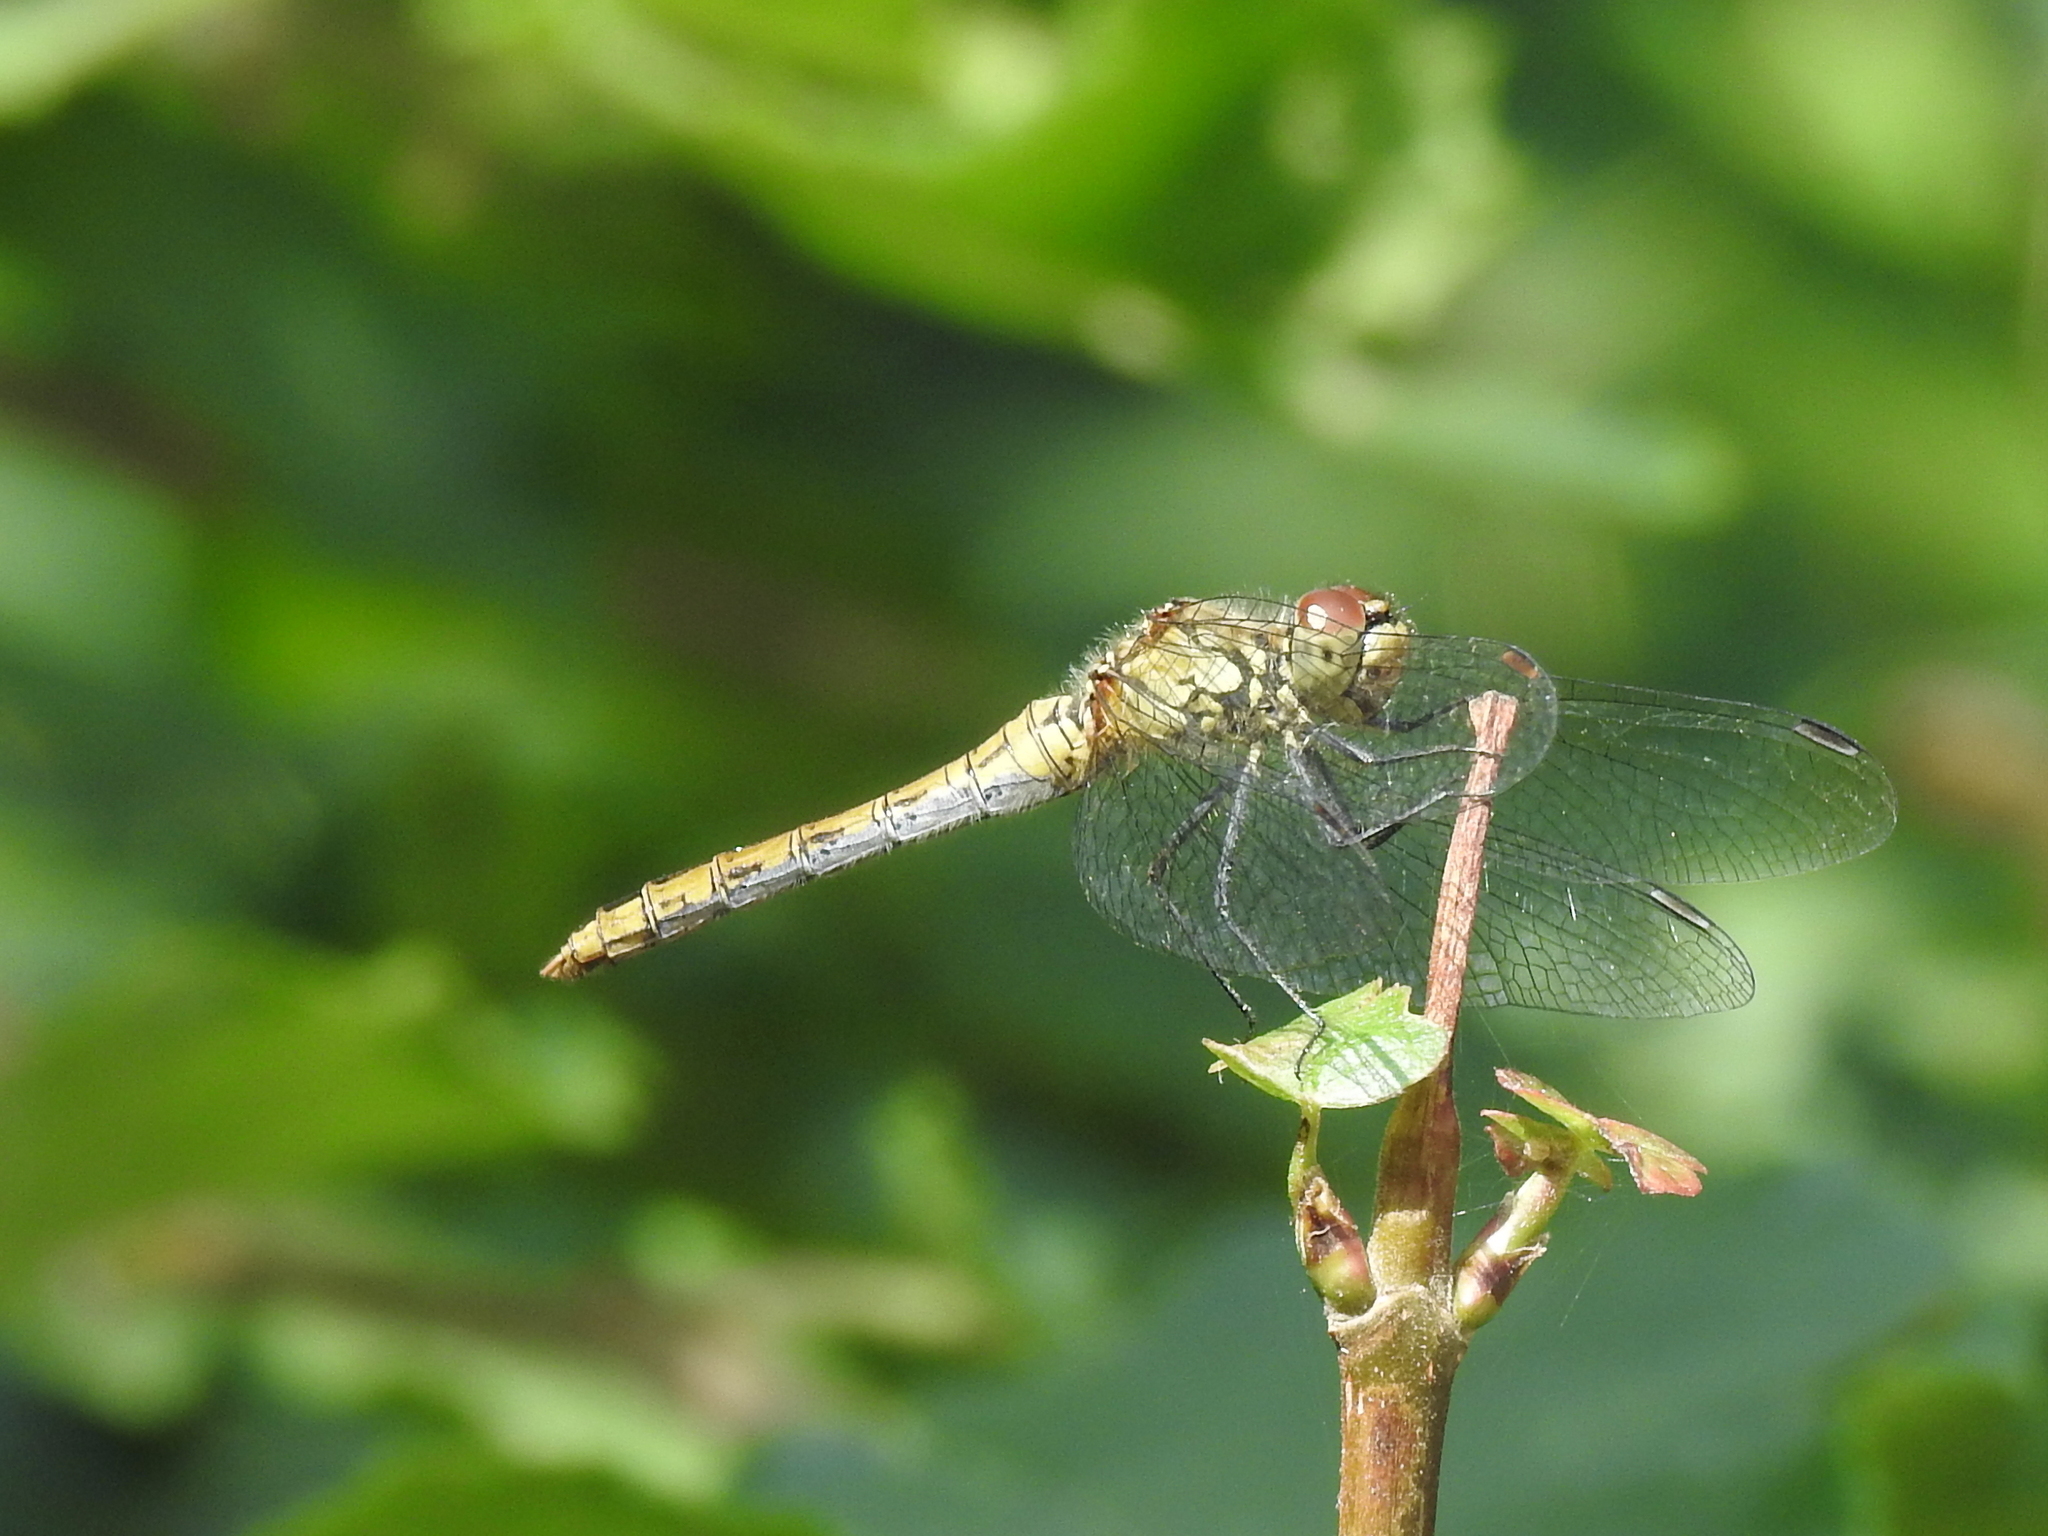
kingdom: Animalia
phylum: Arthropoda
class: Insecta
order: Odonata
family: Libellulidae
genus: Sympetrum
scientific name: Sympetrum sanguineum
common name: Ruddy darter
